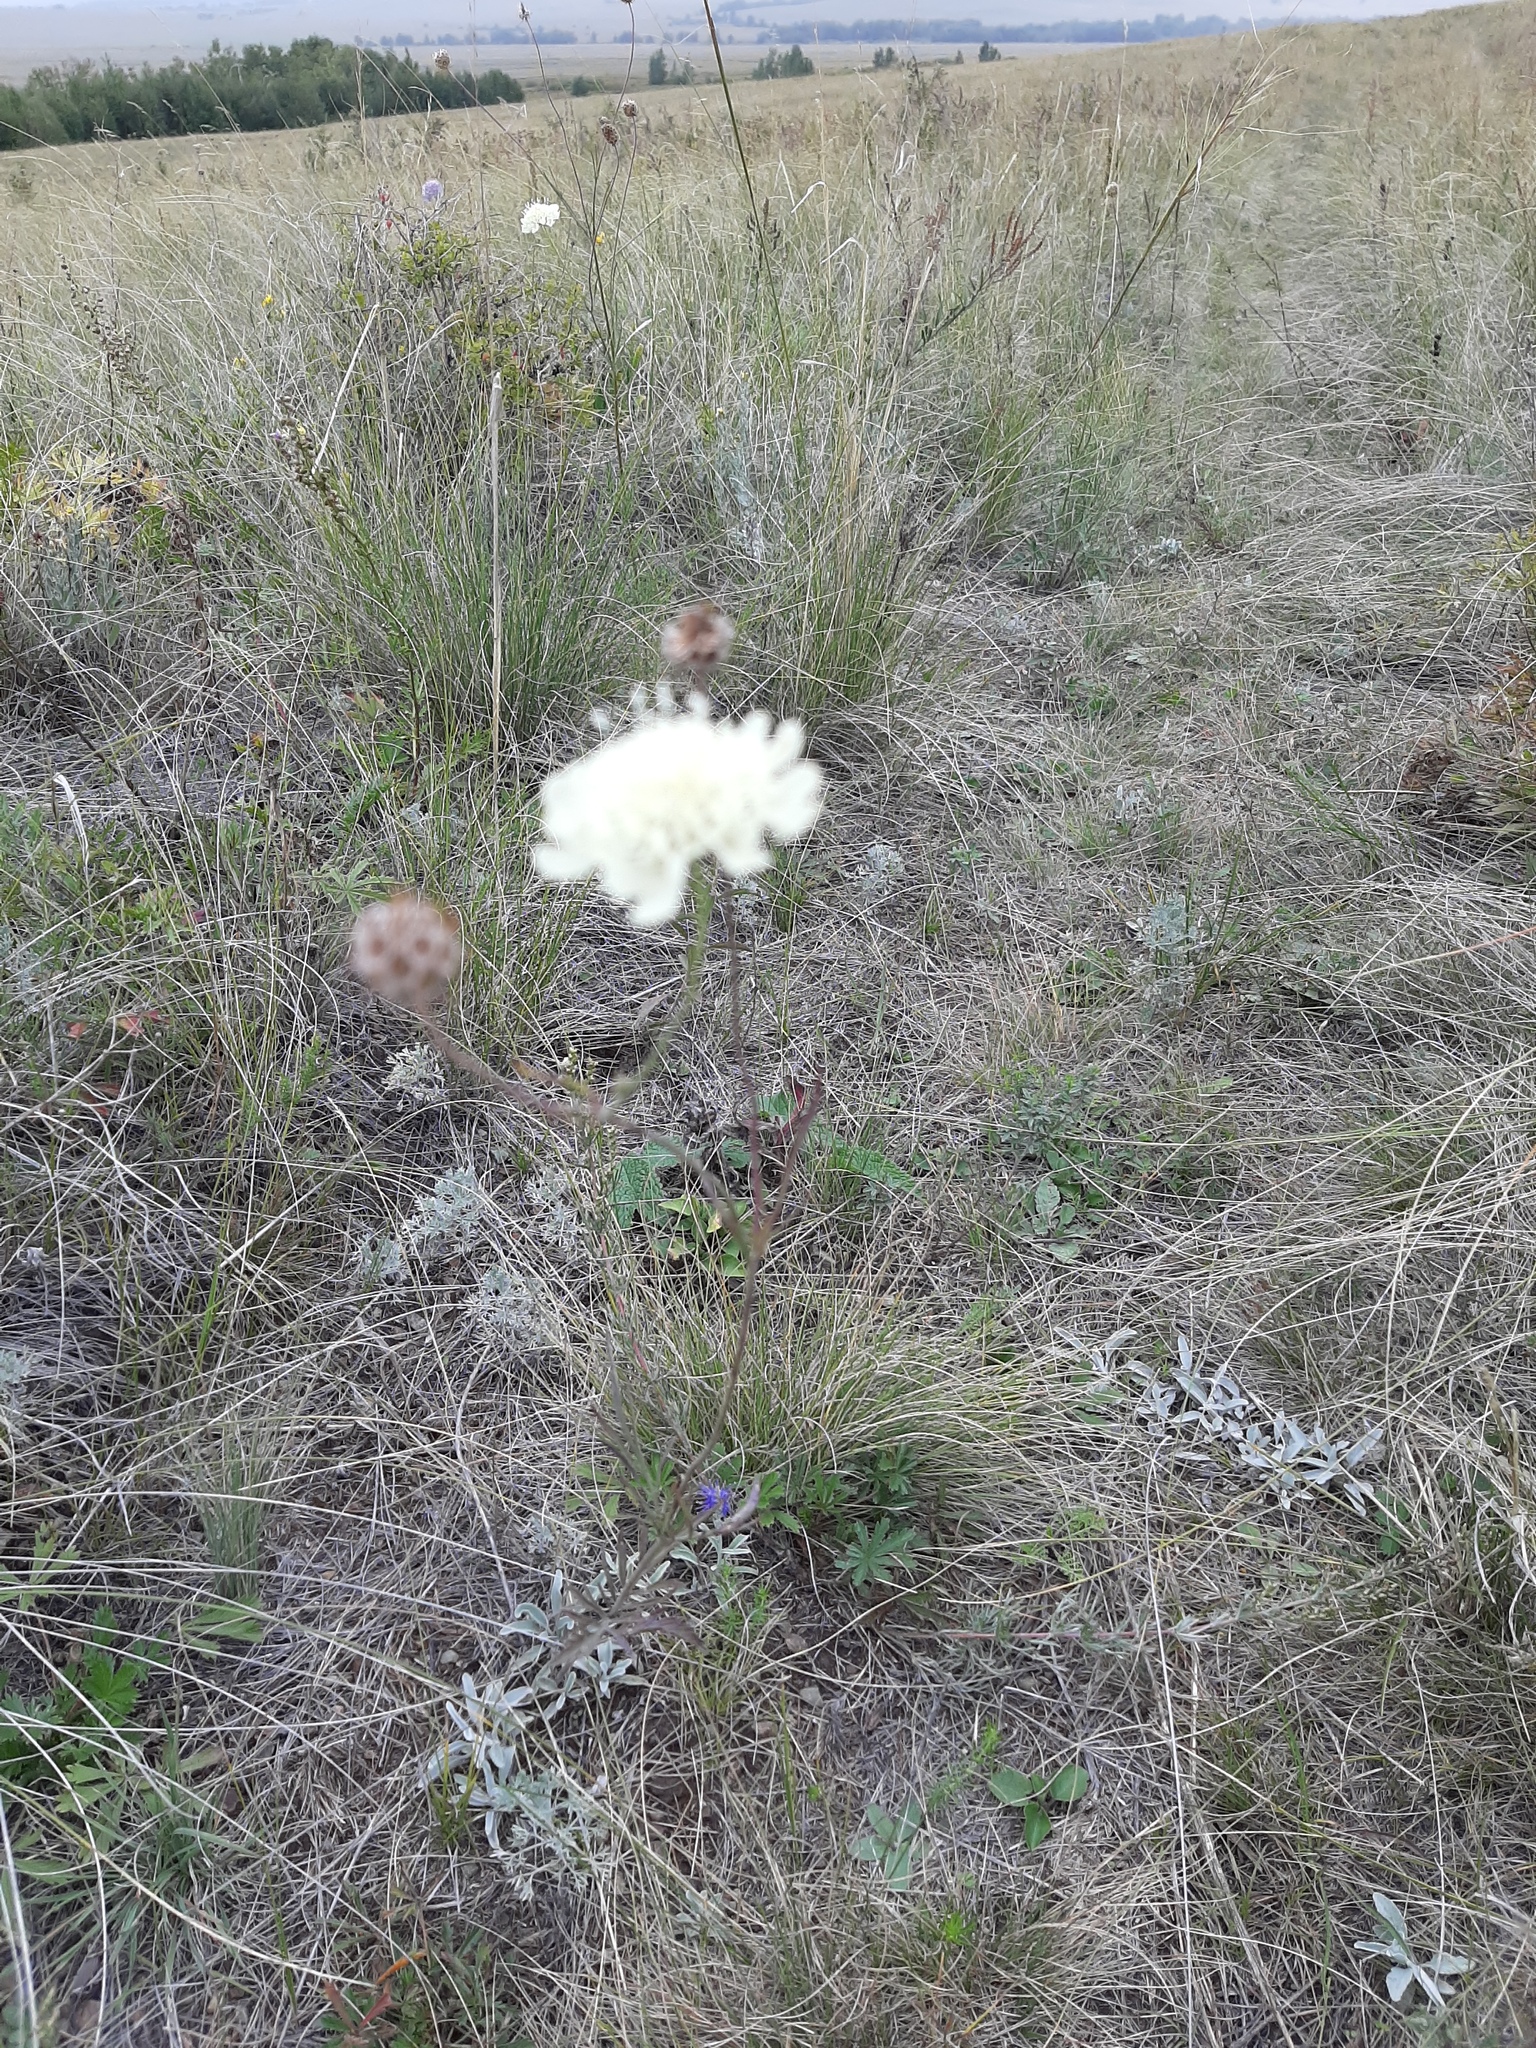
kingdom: Plantae
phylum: Tracheophyta
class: Magnoliopsida
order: Dipsacales
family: Caprifoliaceae
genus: Scabiosa
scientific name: Scabiosa ochroleuca
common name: Cream pincushions
